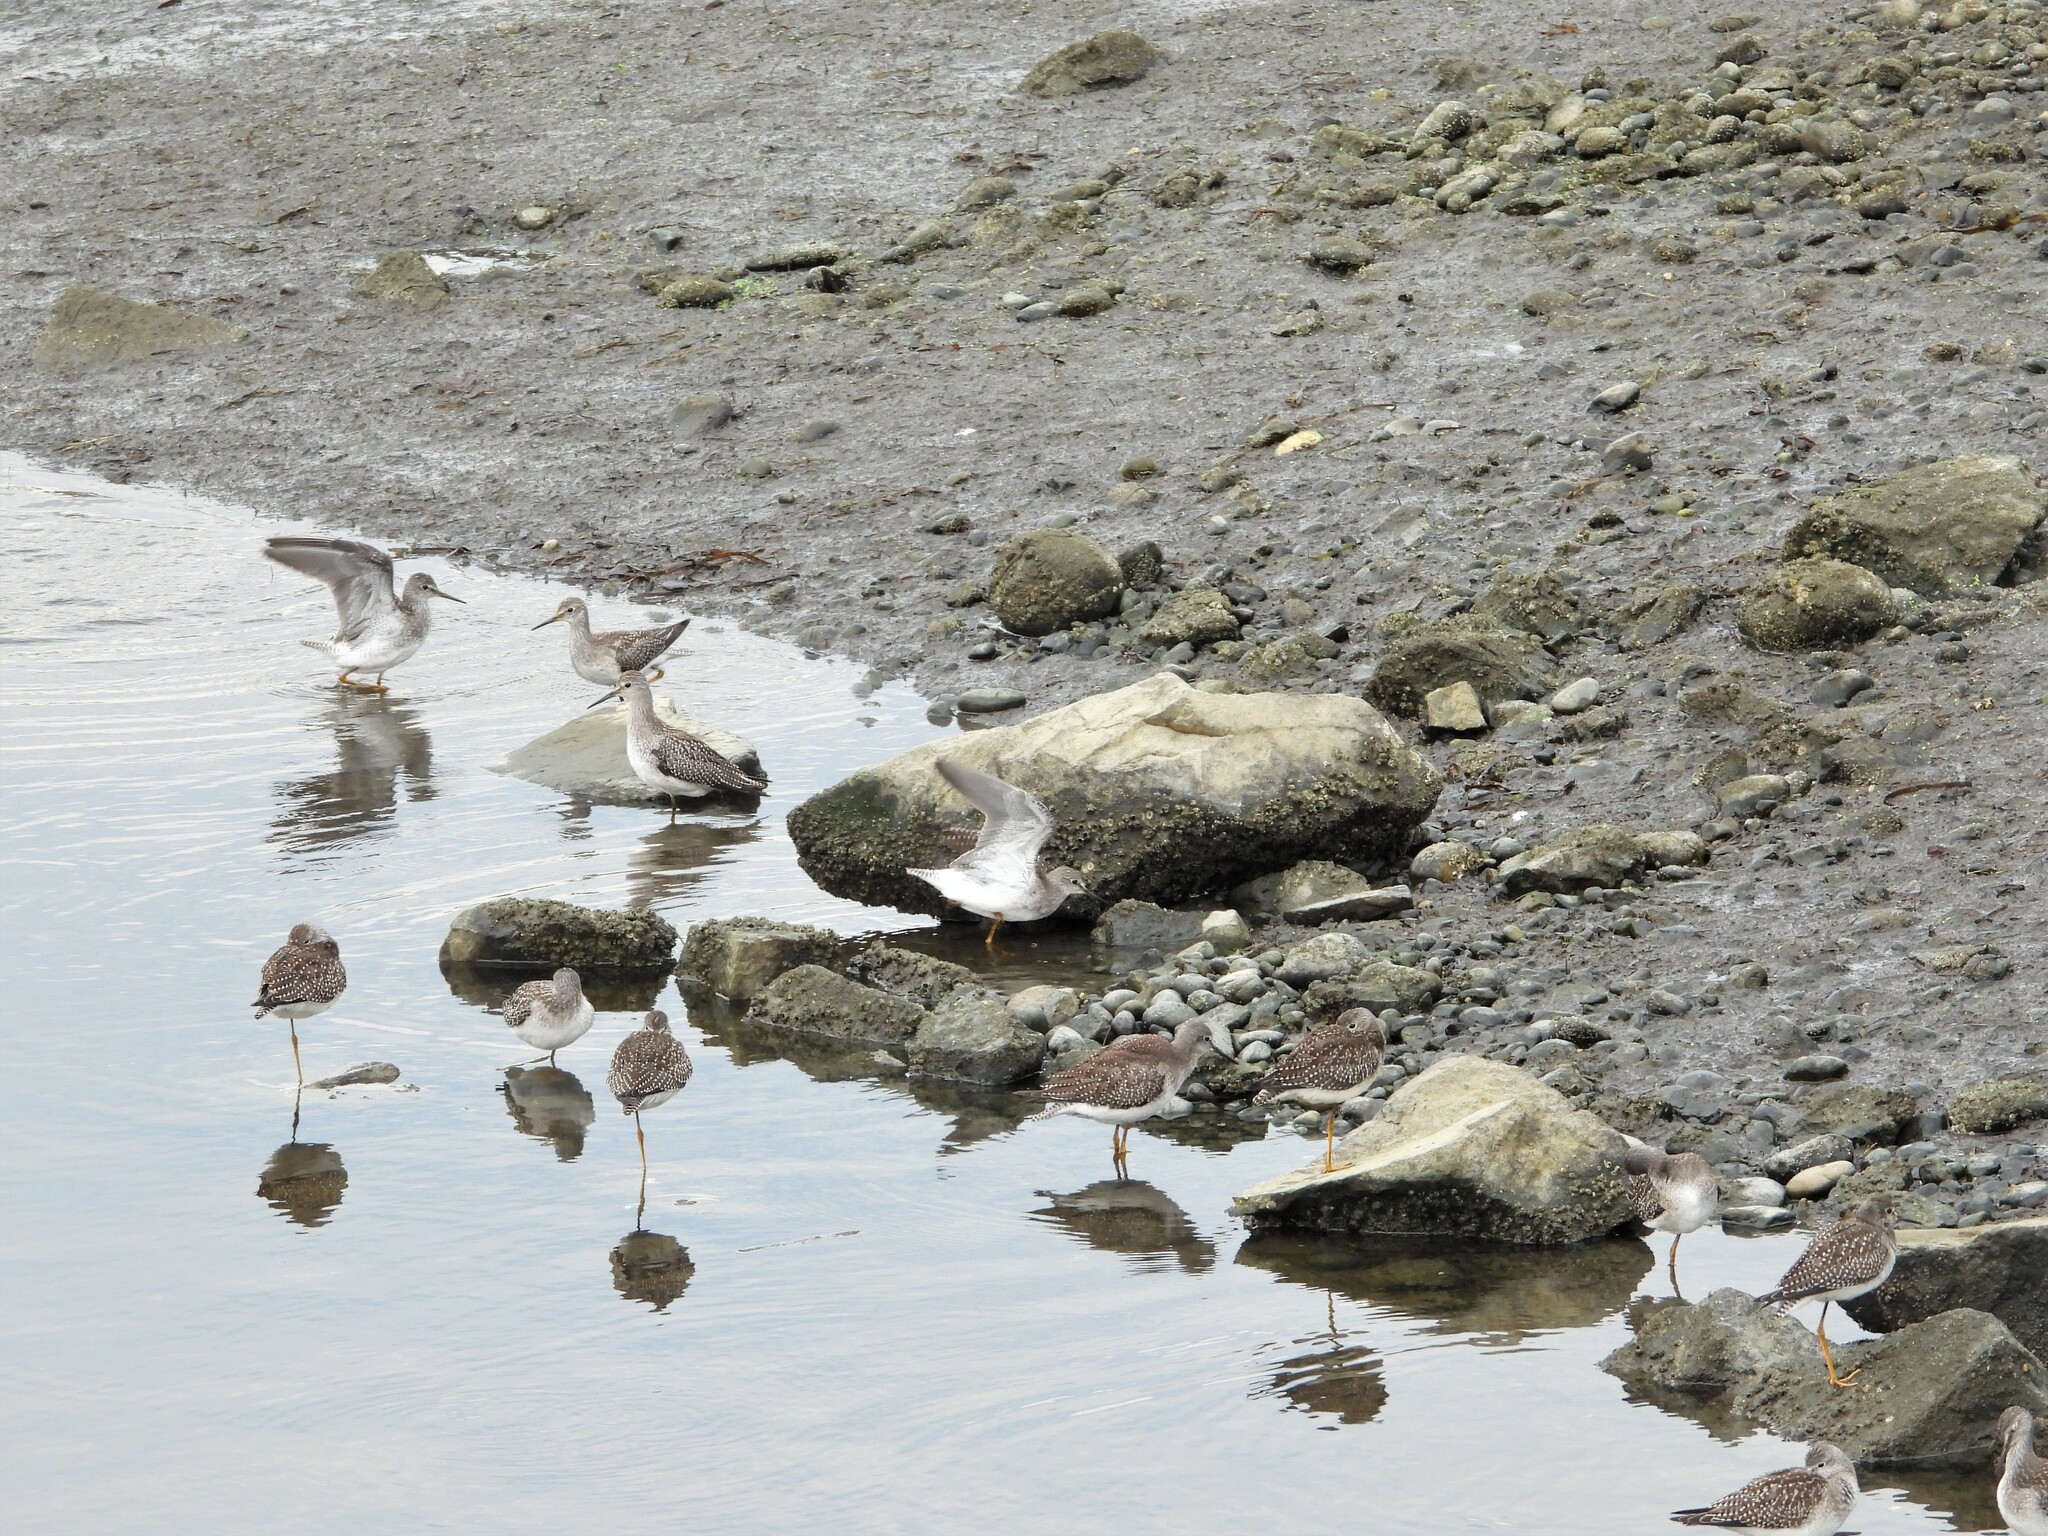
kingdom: Animalia
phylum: Chordata
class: Aves
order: Charadriiformes
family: Scolopacidae
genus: Tringa
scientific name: Tringa flavipes
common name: Lesser yellowlegs
